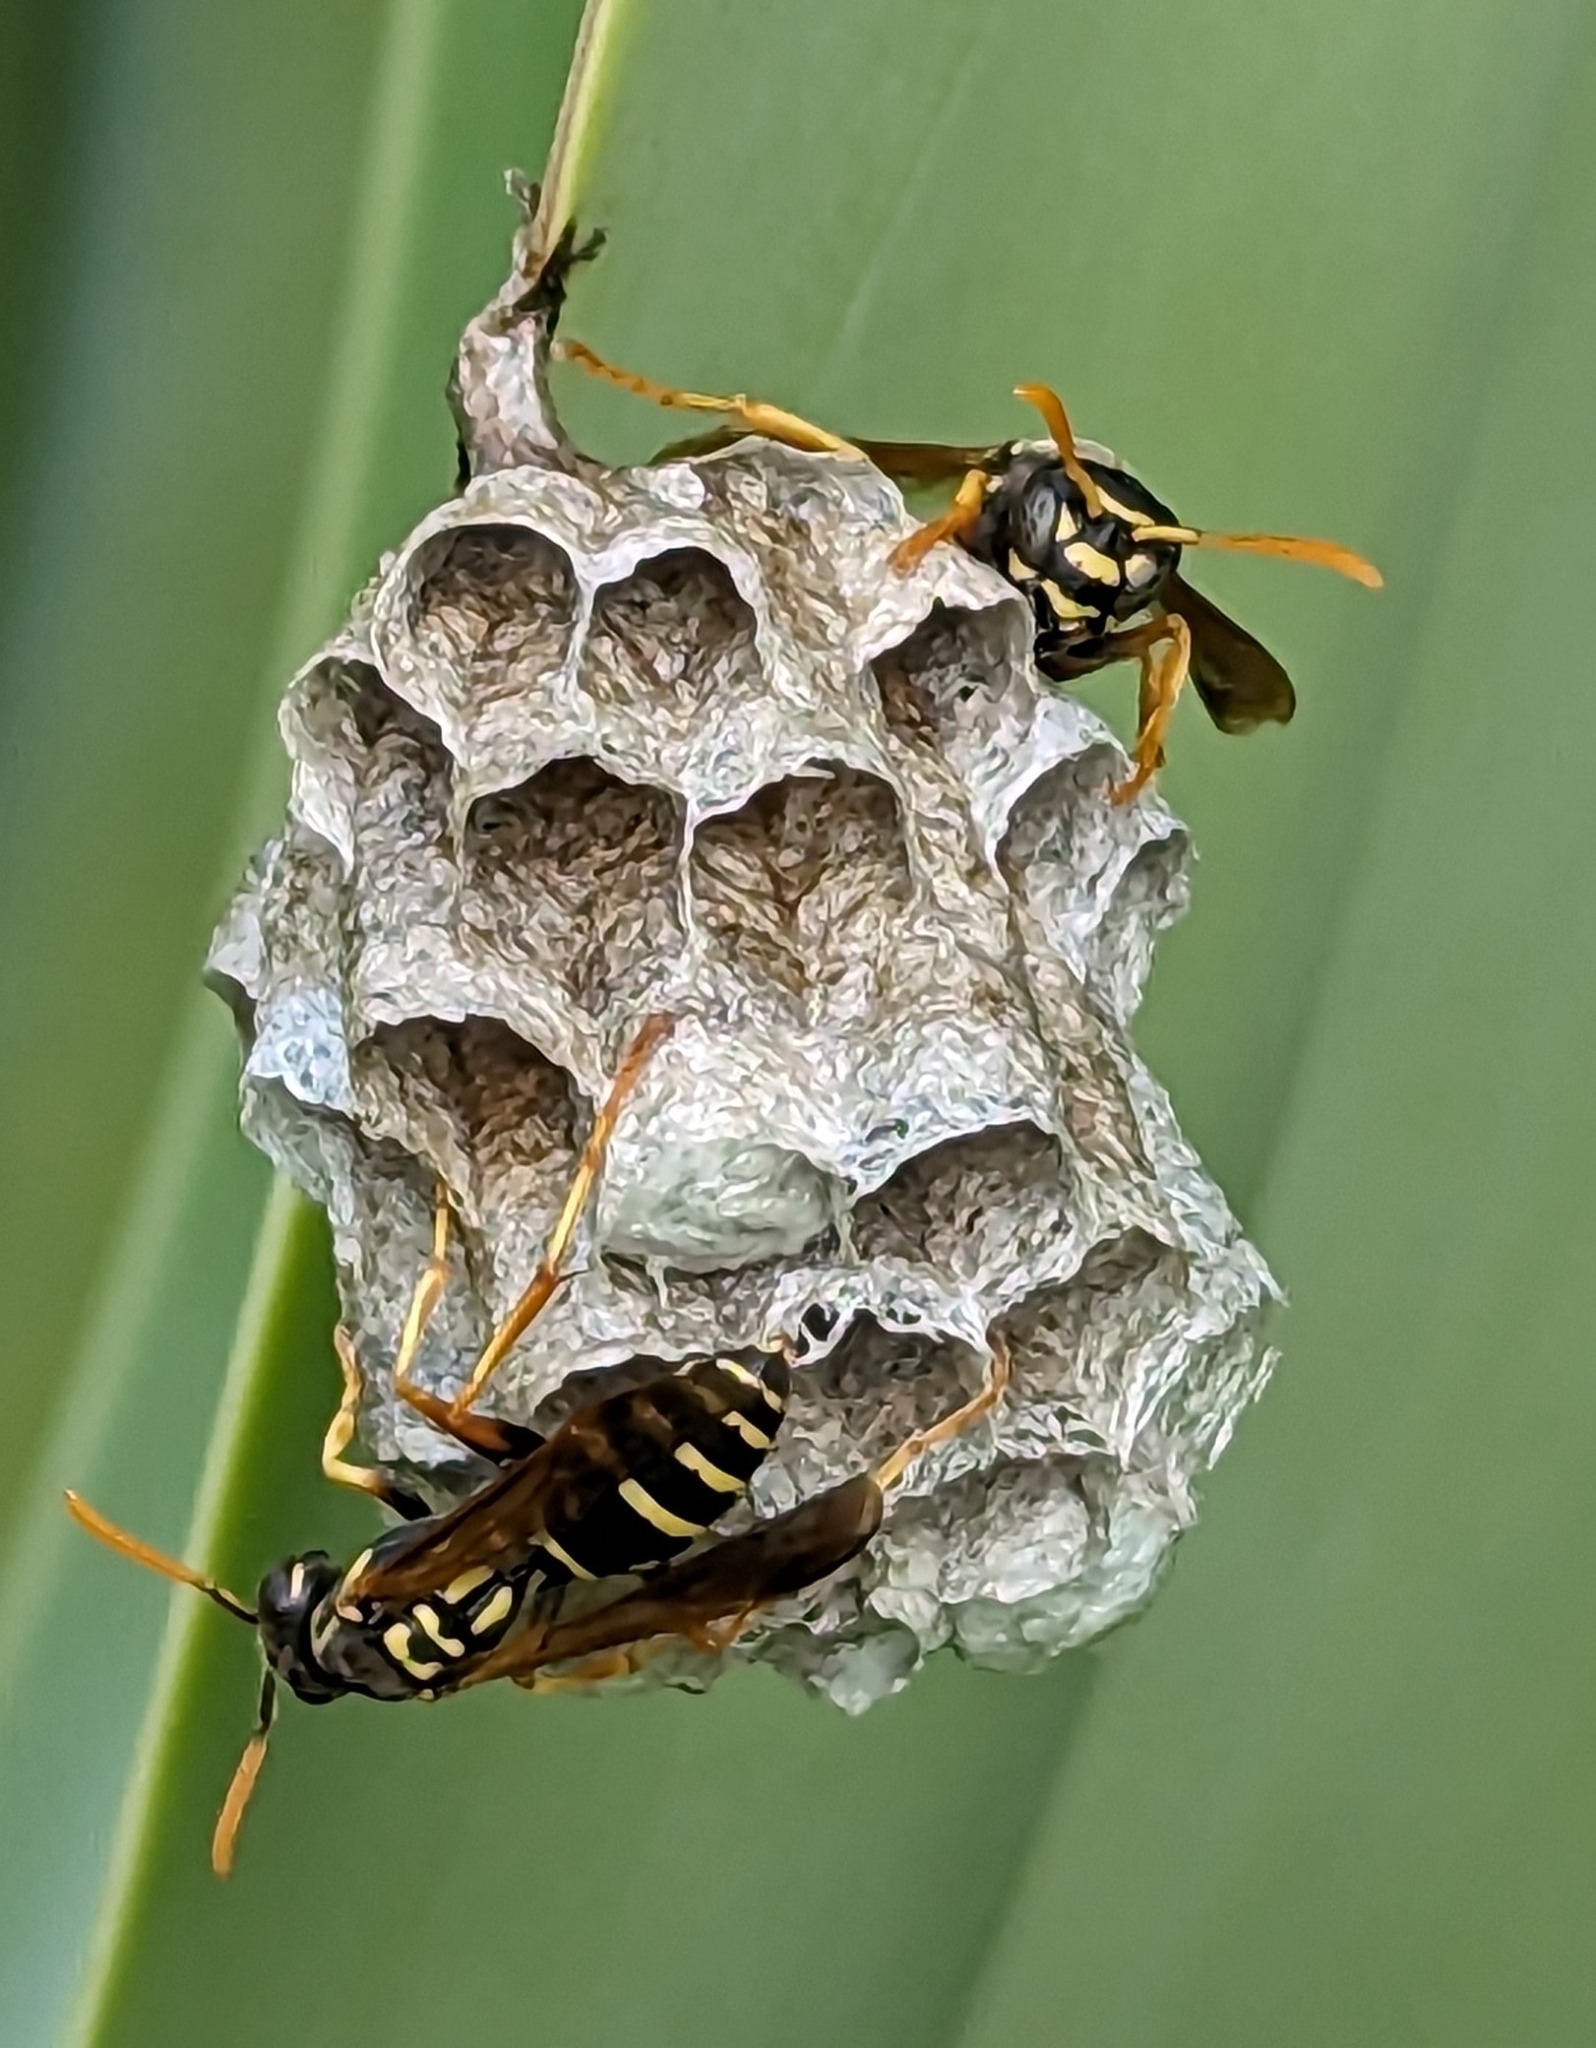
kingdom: Animalia
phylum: Arthropoda
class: Insecta
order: Hymenoptera
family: Eumenidae
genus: Polistes
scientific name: Polistes chinensis
